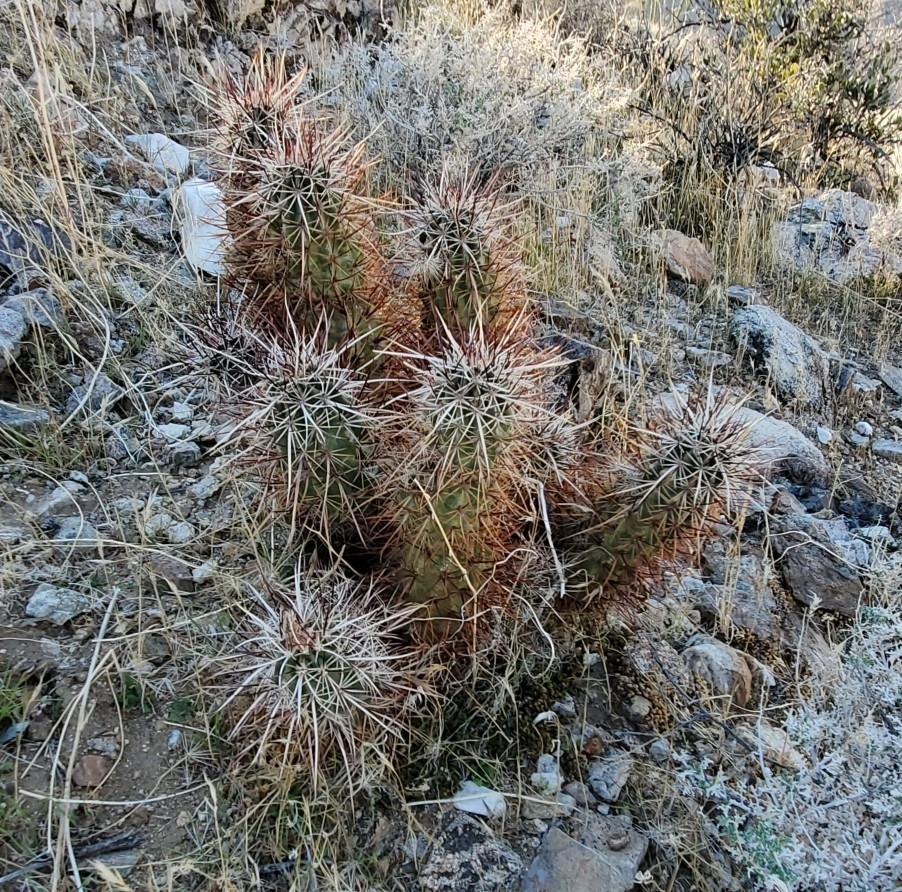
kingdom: Plantae
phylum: Tracheophyta
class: Magnoliopsida
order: Caryophyllales
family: Cactaceae
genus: Echinocereus
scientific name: Echinocereus engelmannii
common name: Engelmann's hedgehog cactus
